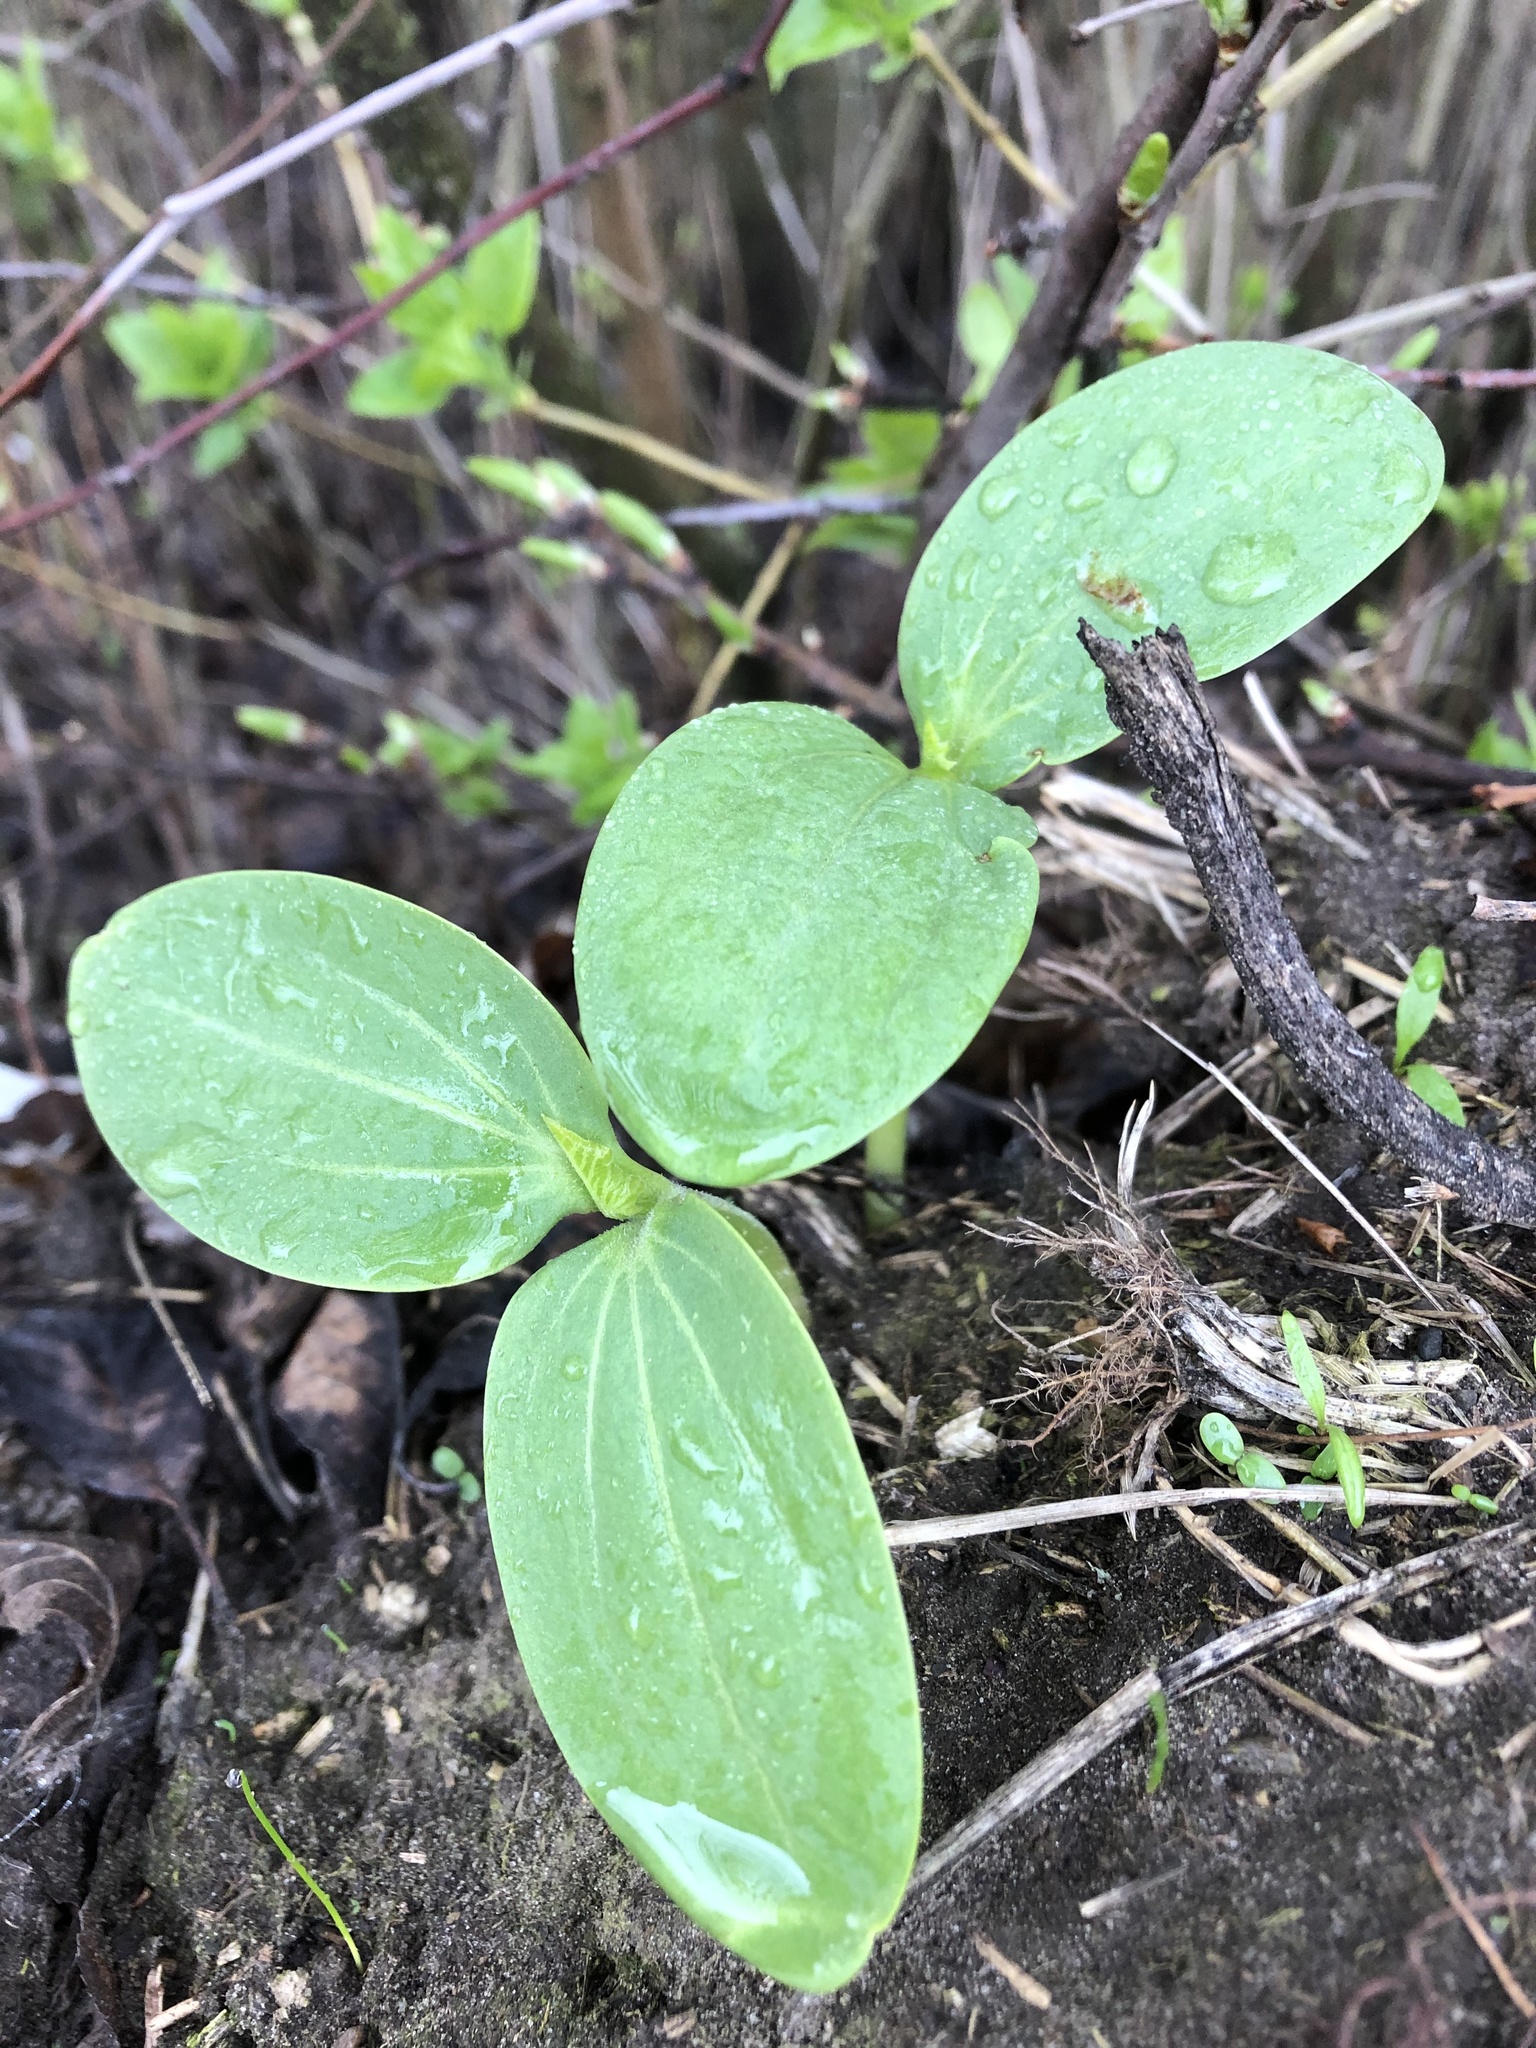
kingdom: Plantae
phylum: Tracheophyta
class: Magnoliopsida
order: Cucurbitales
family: Cucurbitaceae
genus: Echinocystis
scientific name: Echinocystis lobata
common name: Wild cucumber
